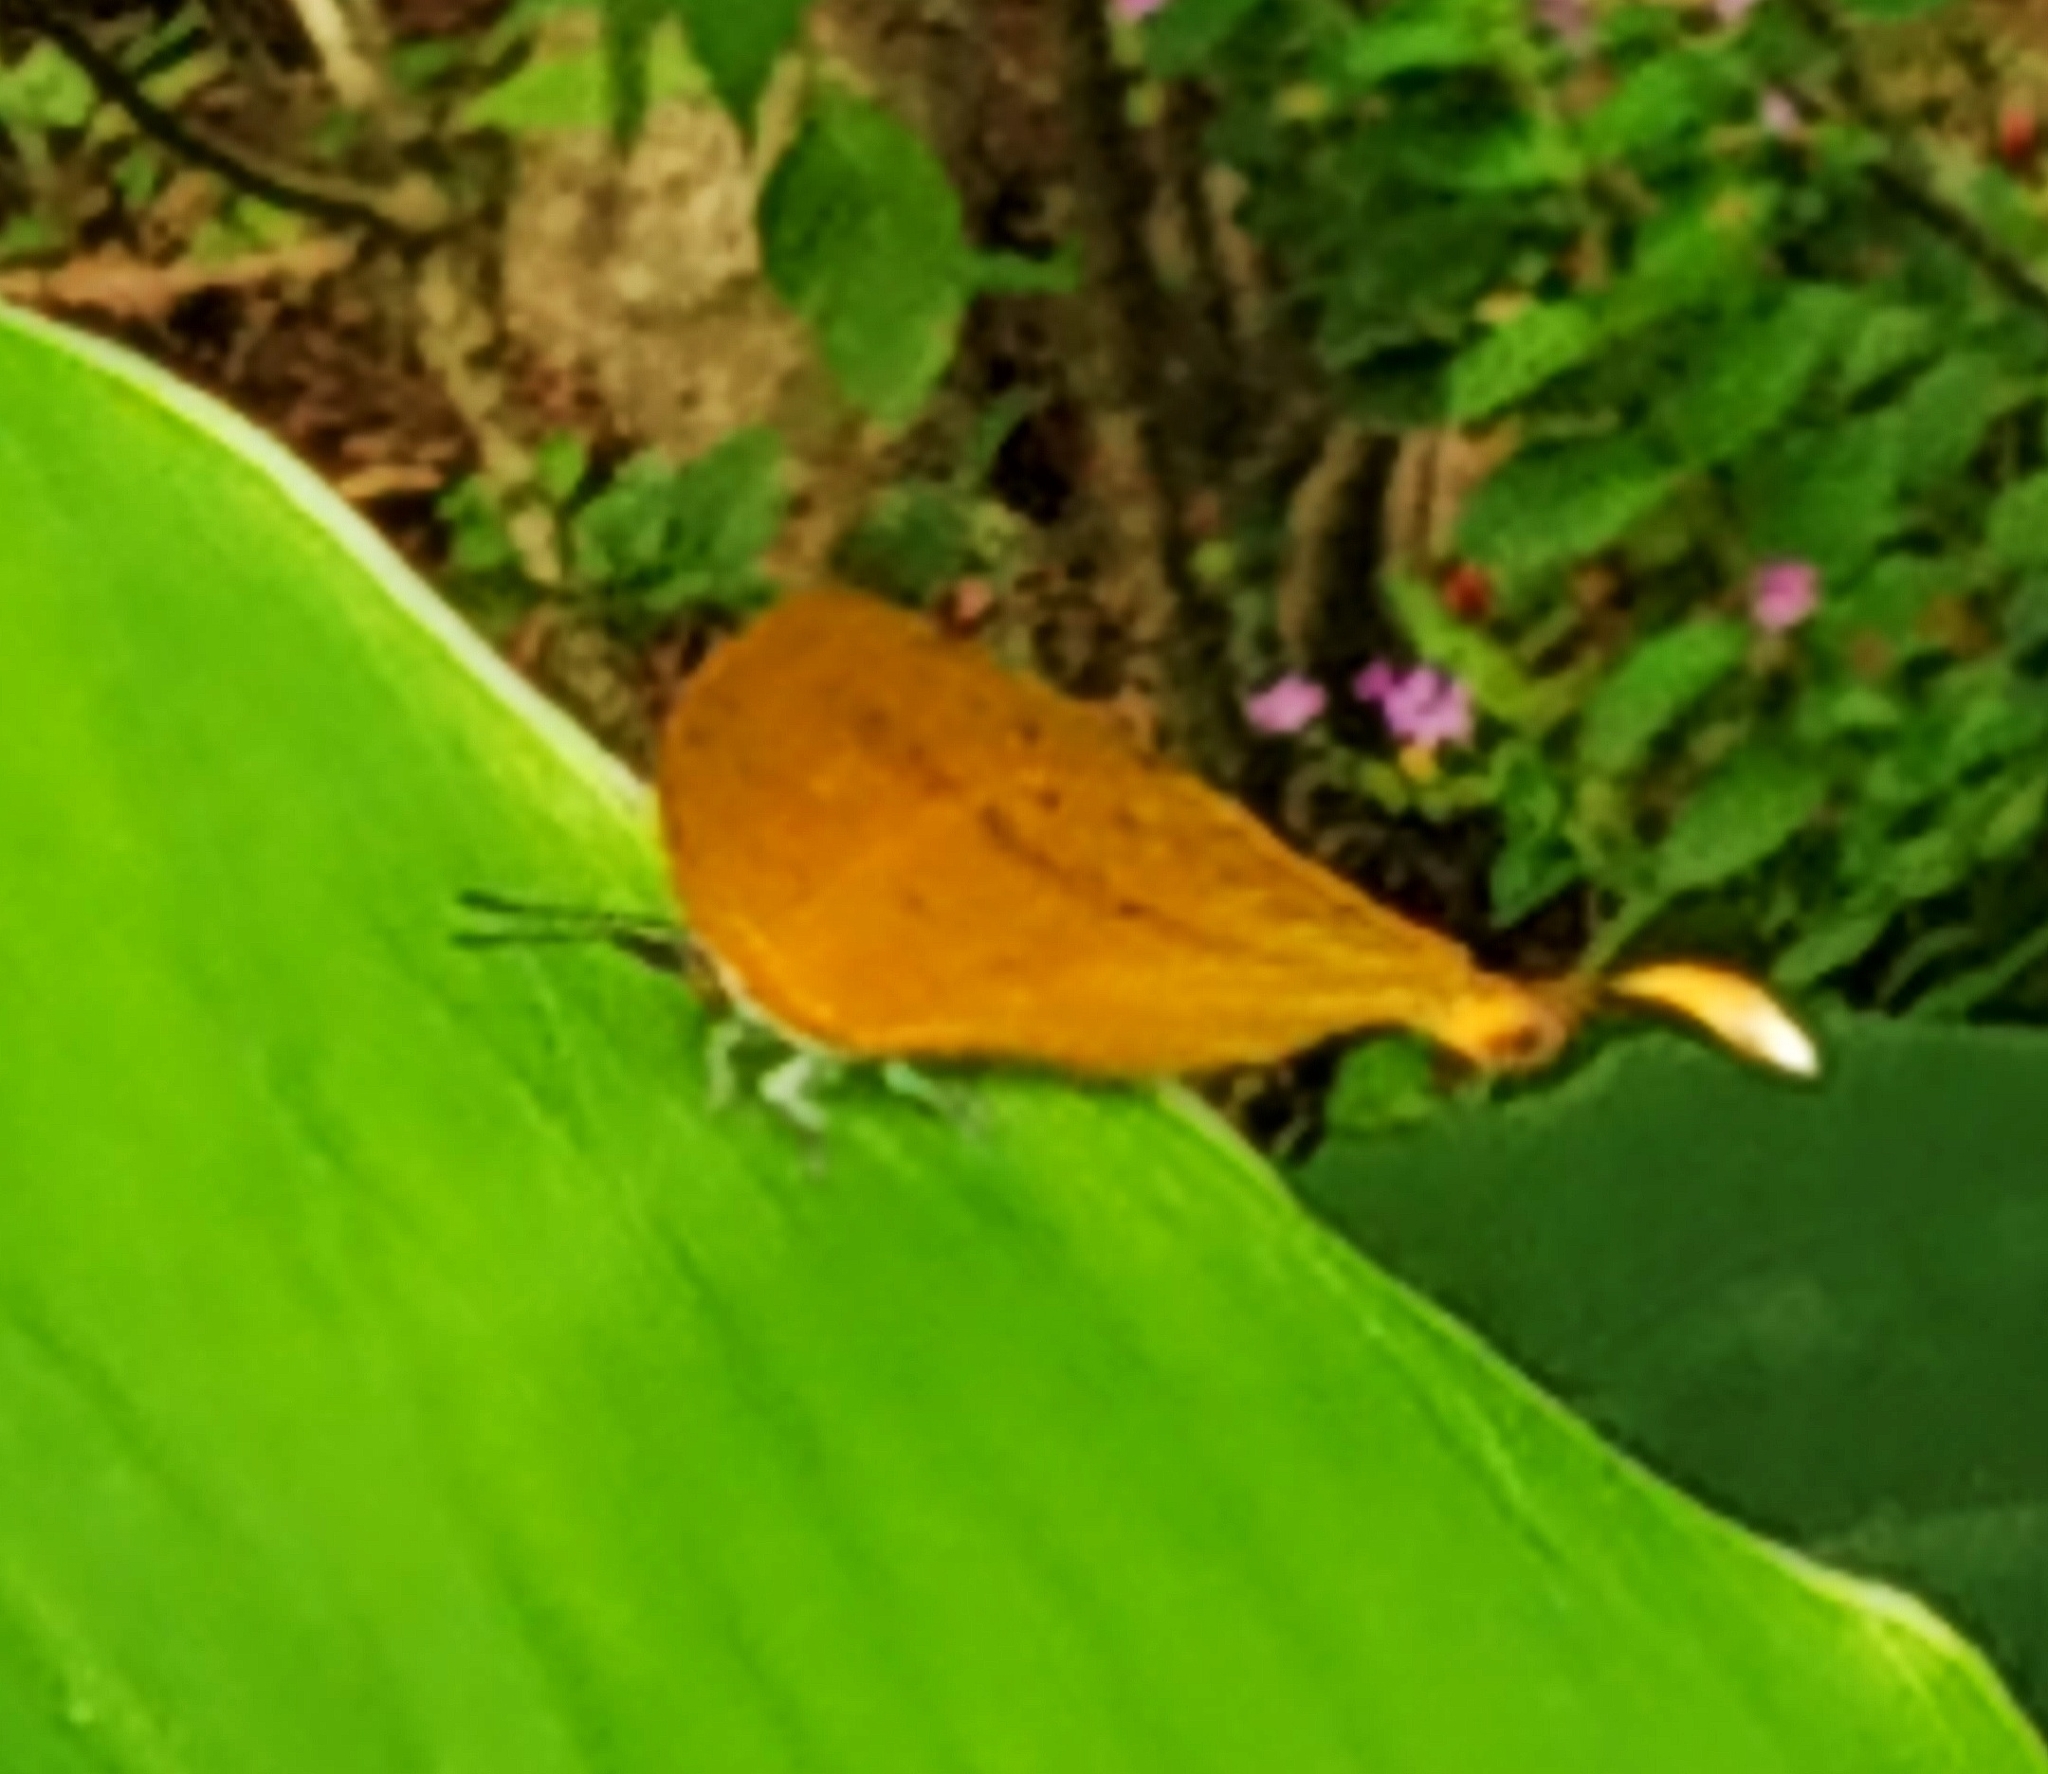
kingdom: Animalia
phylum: Arthropoda
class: Insecta
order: Lepidoptera
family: Lycaenidae
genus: Loxura
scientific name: Loxura atymnus
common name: Common yamfly
